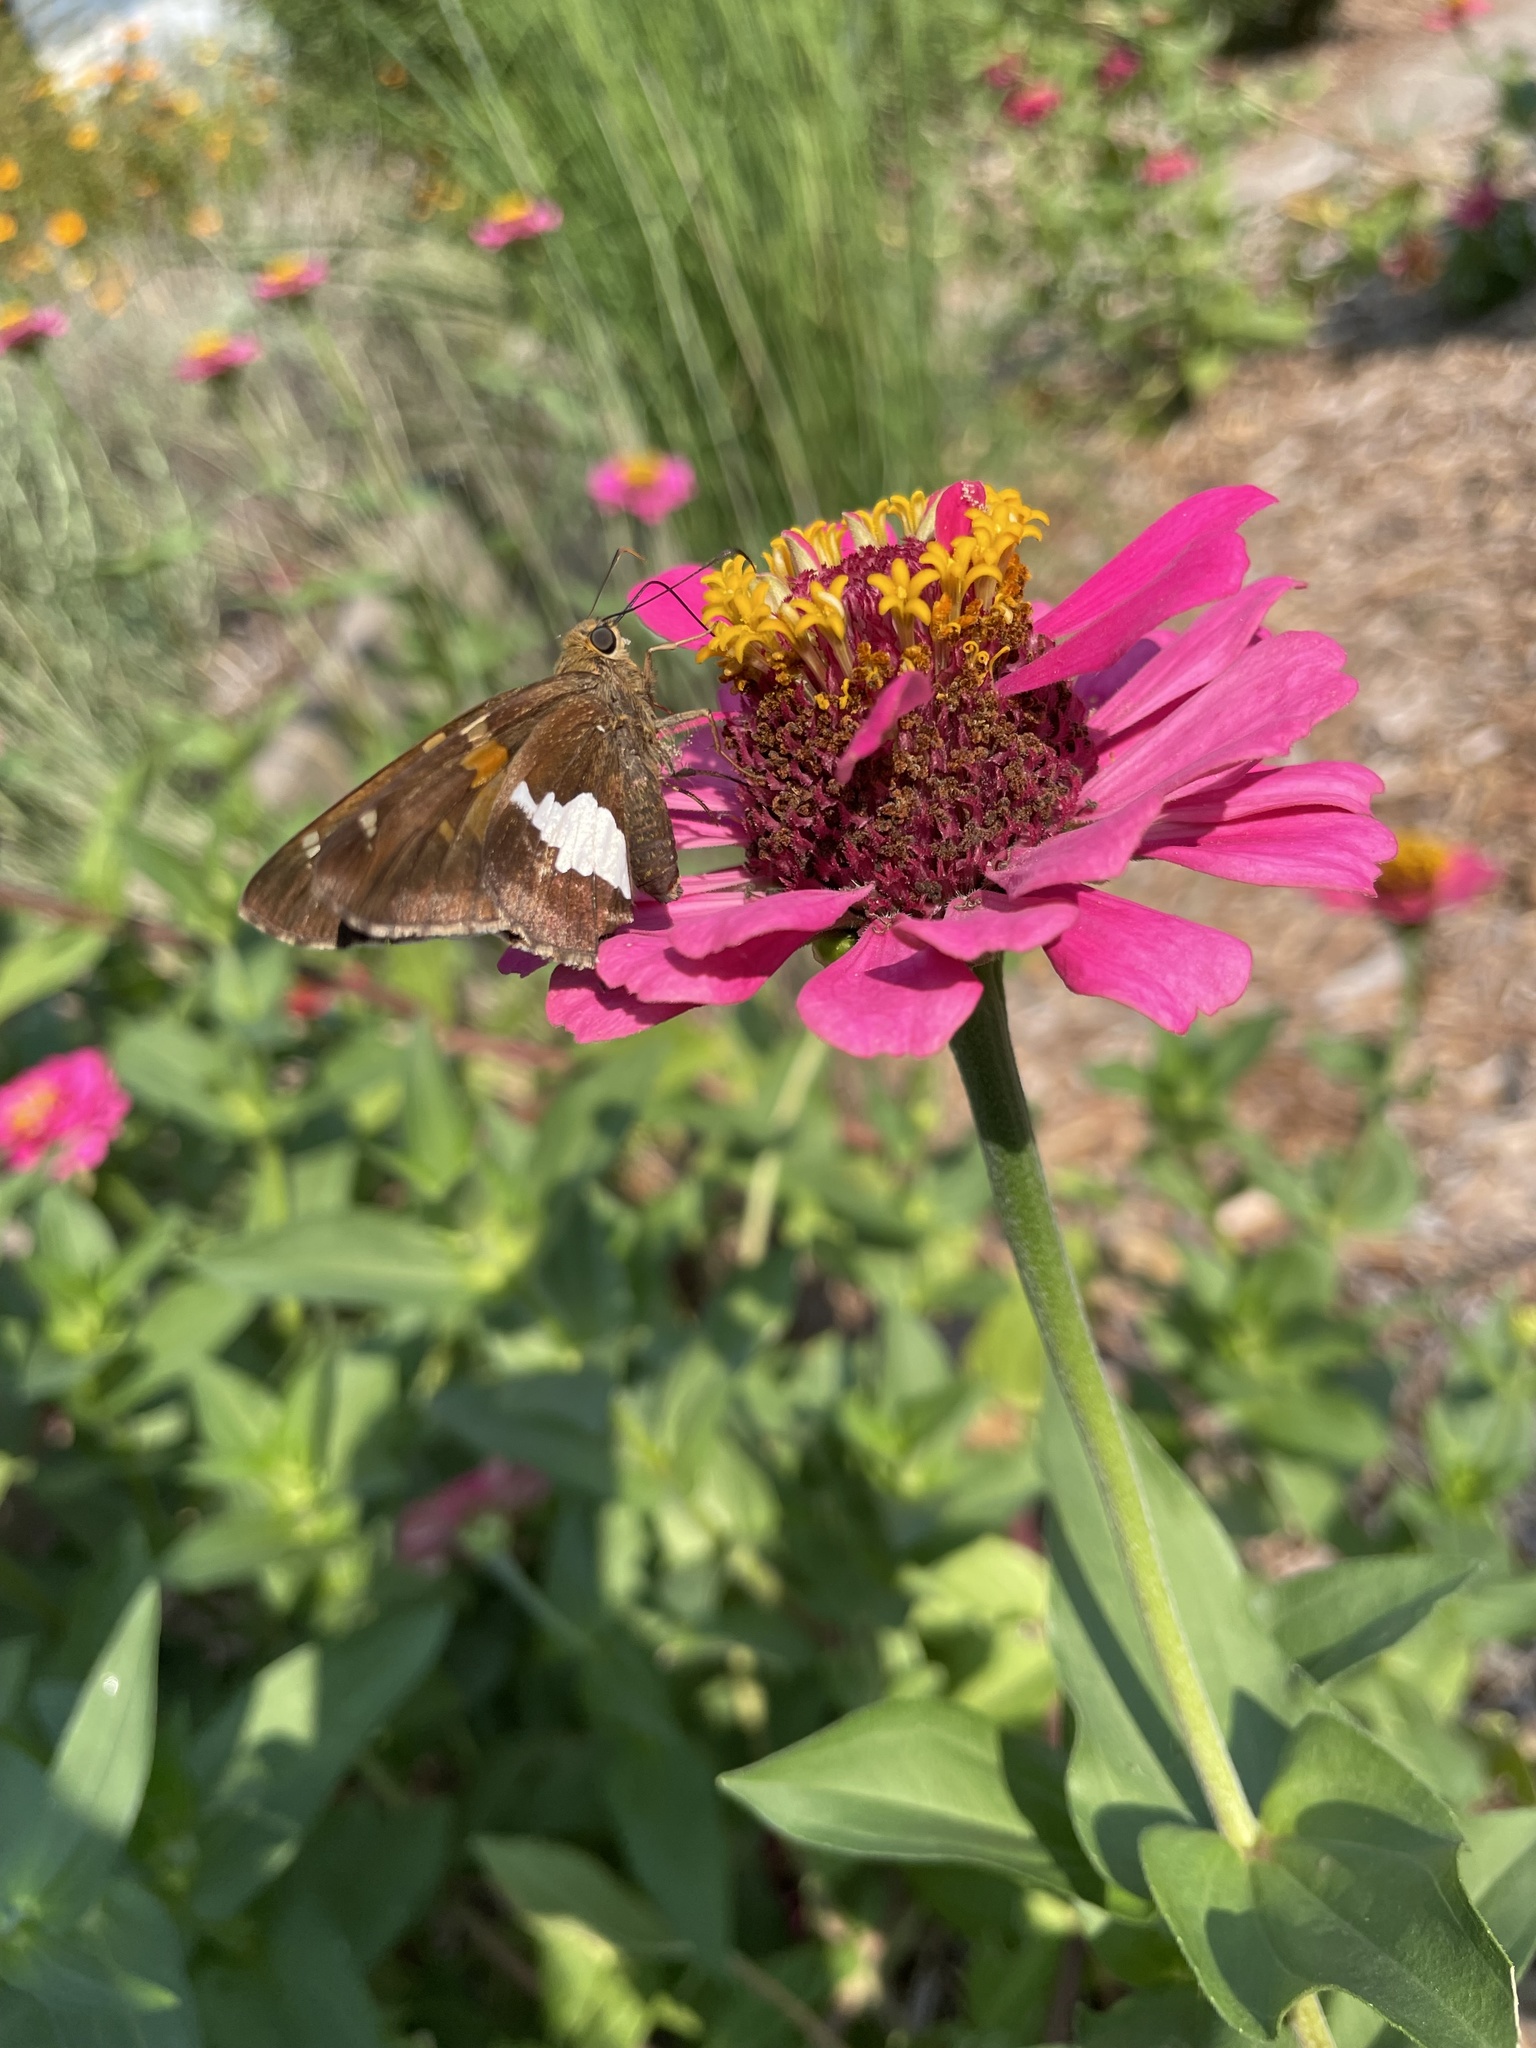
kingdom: Animalia
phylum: Arthropoda
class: Insecta
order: Lepidoptera
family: Hesperiidae
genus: Epargyreus
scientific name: Epargyreus clarus
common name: Silver-spotted skipper
